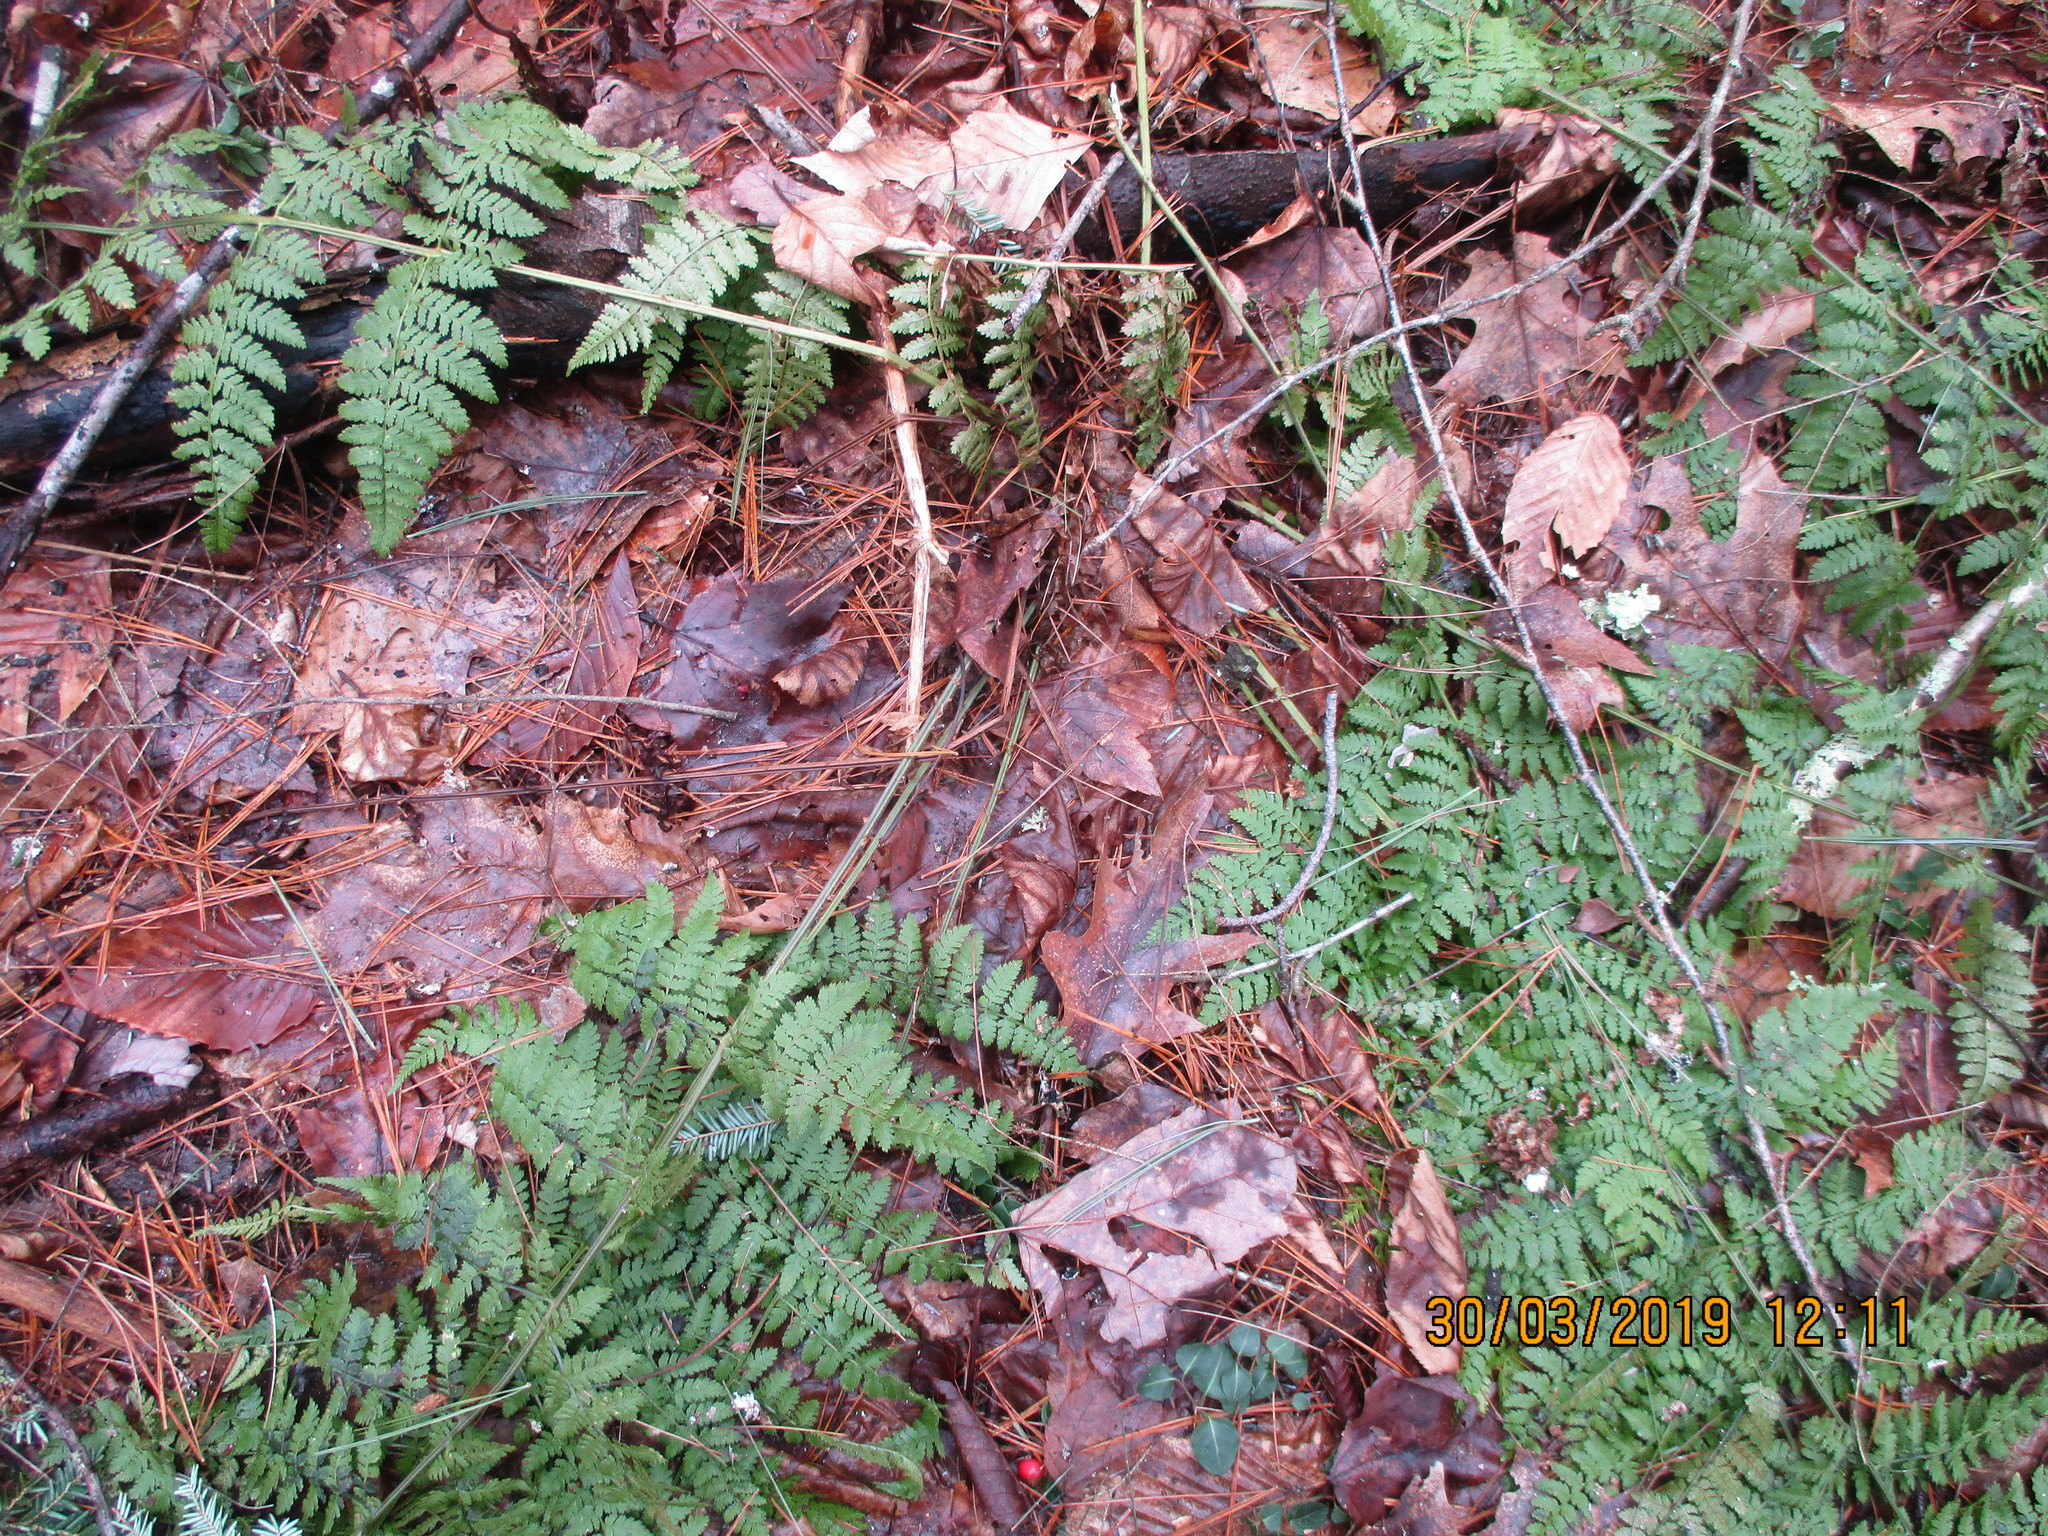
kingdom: Plantae
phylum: Tracheophyta
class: Polypodiopsida
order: Polypodiales
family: Dryopteridaceae
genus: Dryopteris
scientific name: Dryopteris intermedia
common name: Evergreen wood fern
